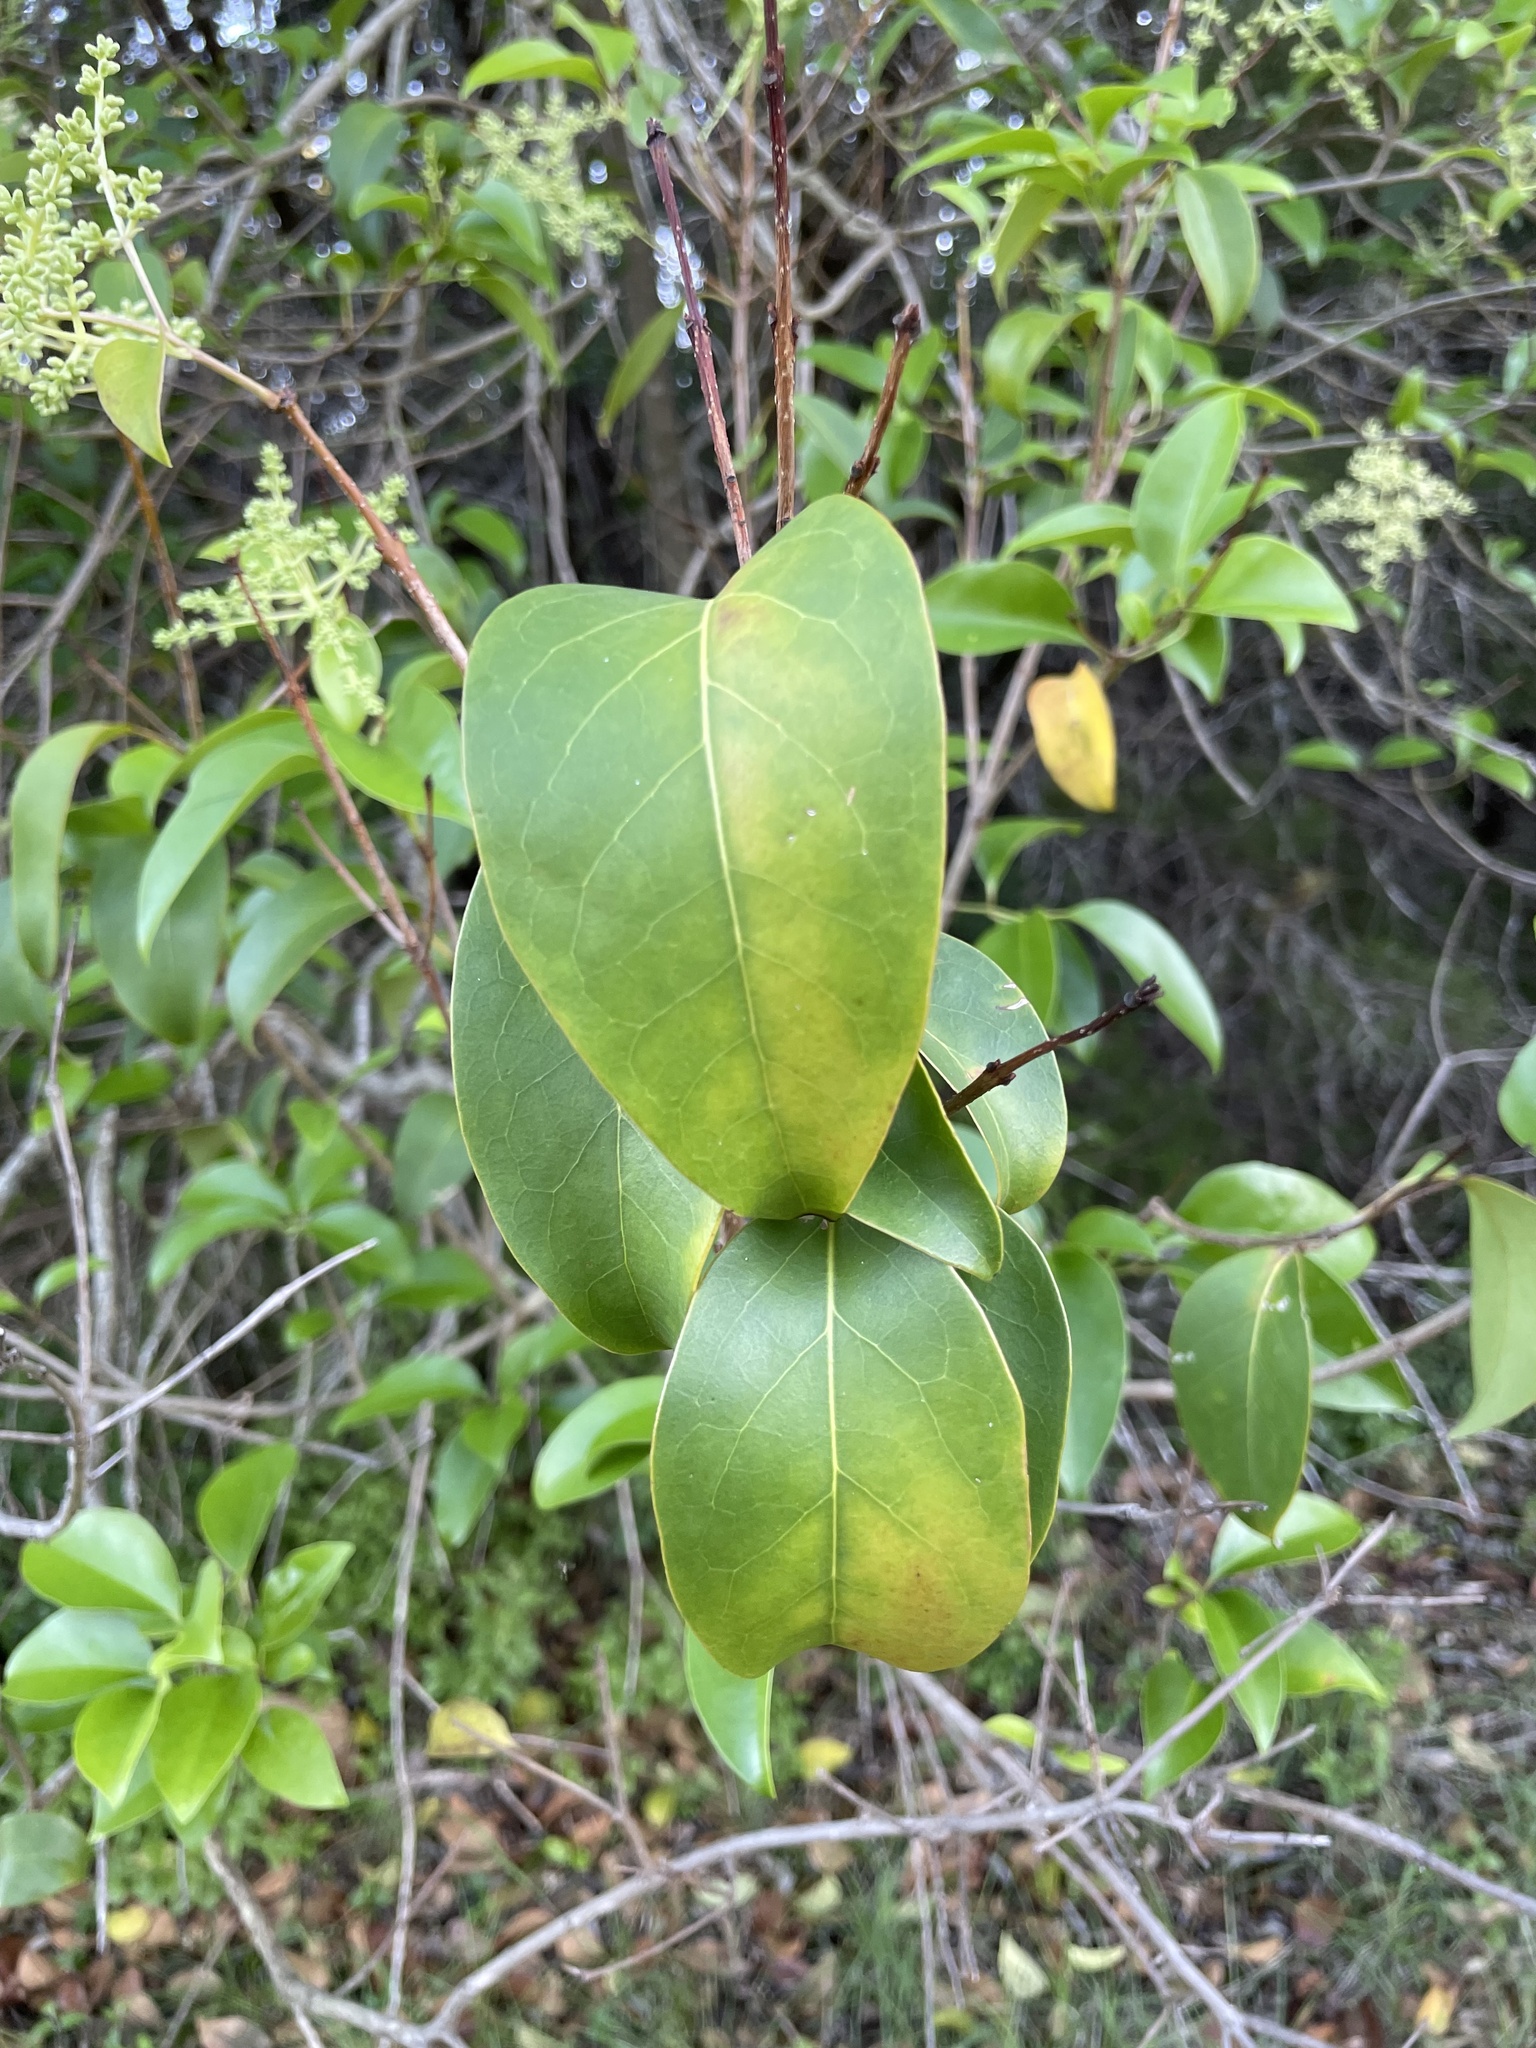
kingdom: Plantae
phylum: Tracheophyta
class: Magnoliopsida
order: Lamiales
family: Oleaceae
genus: Ligustrum
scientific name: Ligustrum lucidum
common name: Glossy privet
